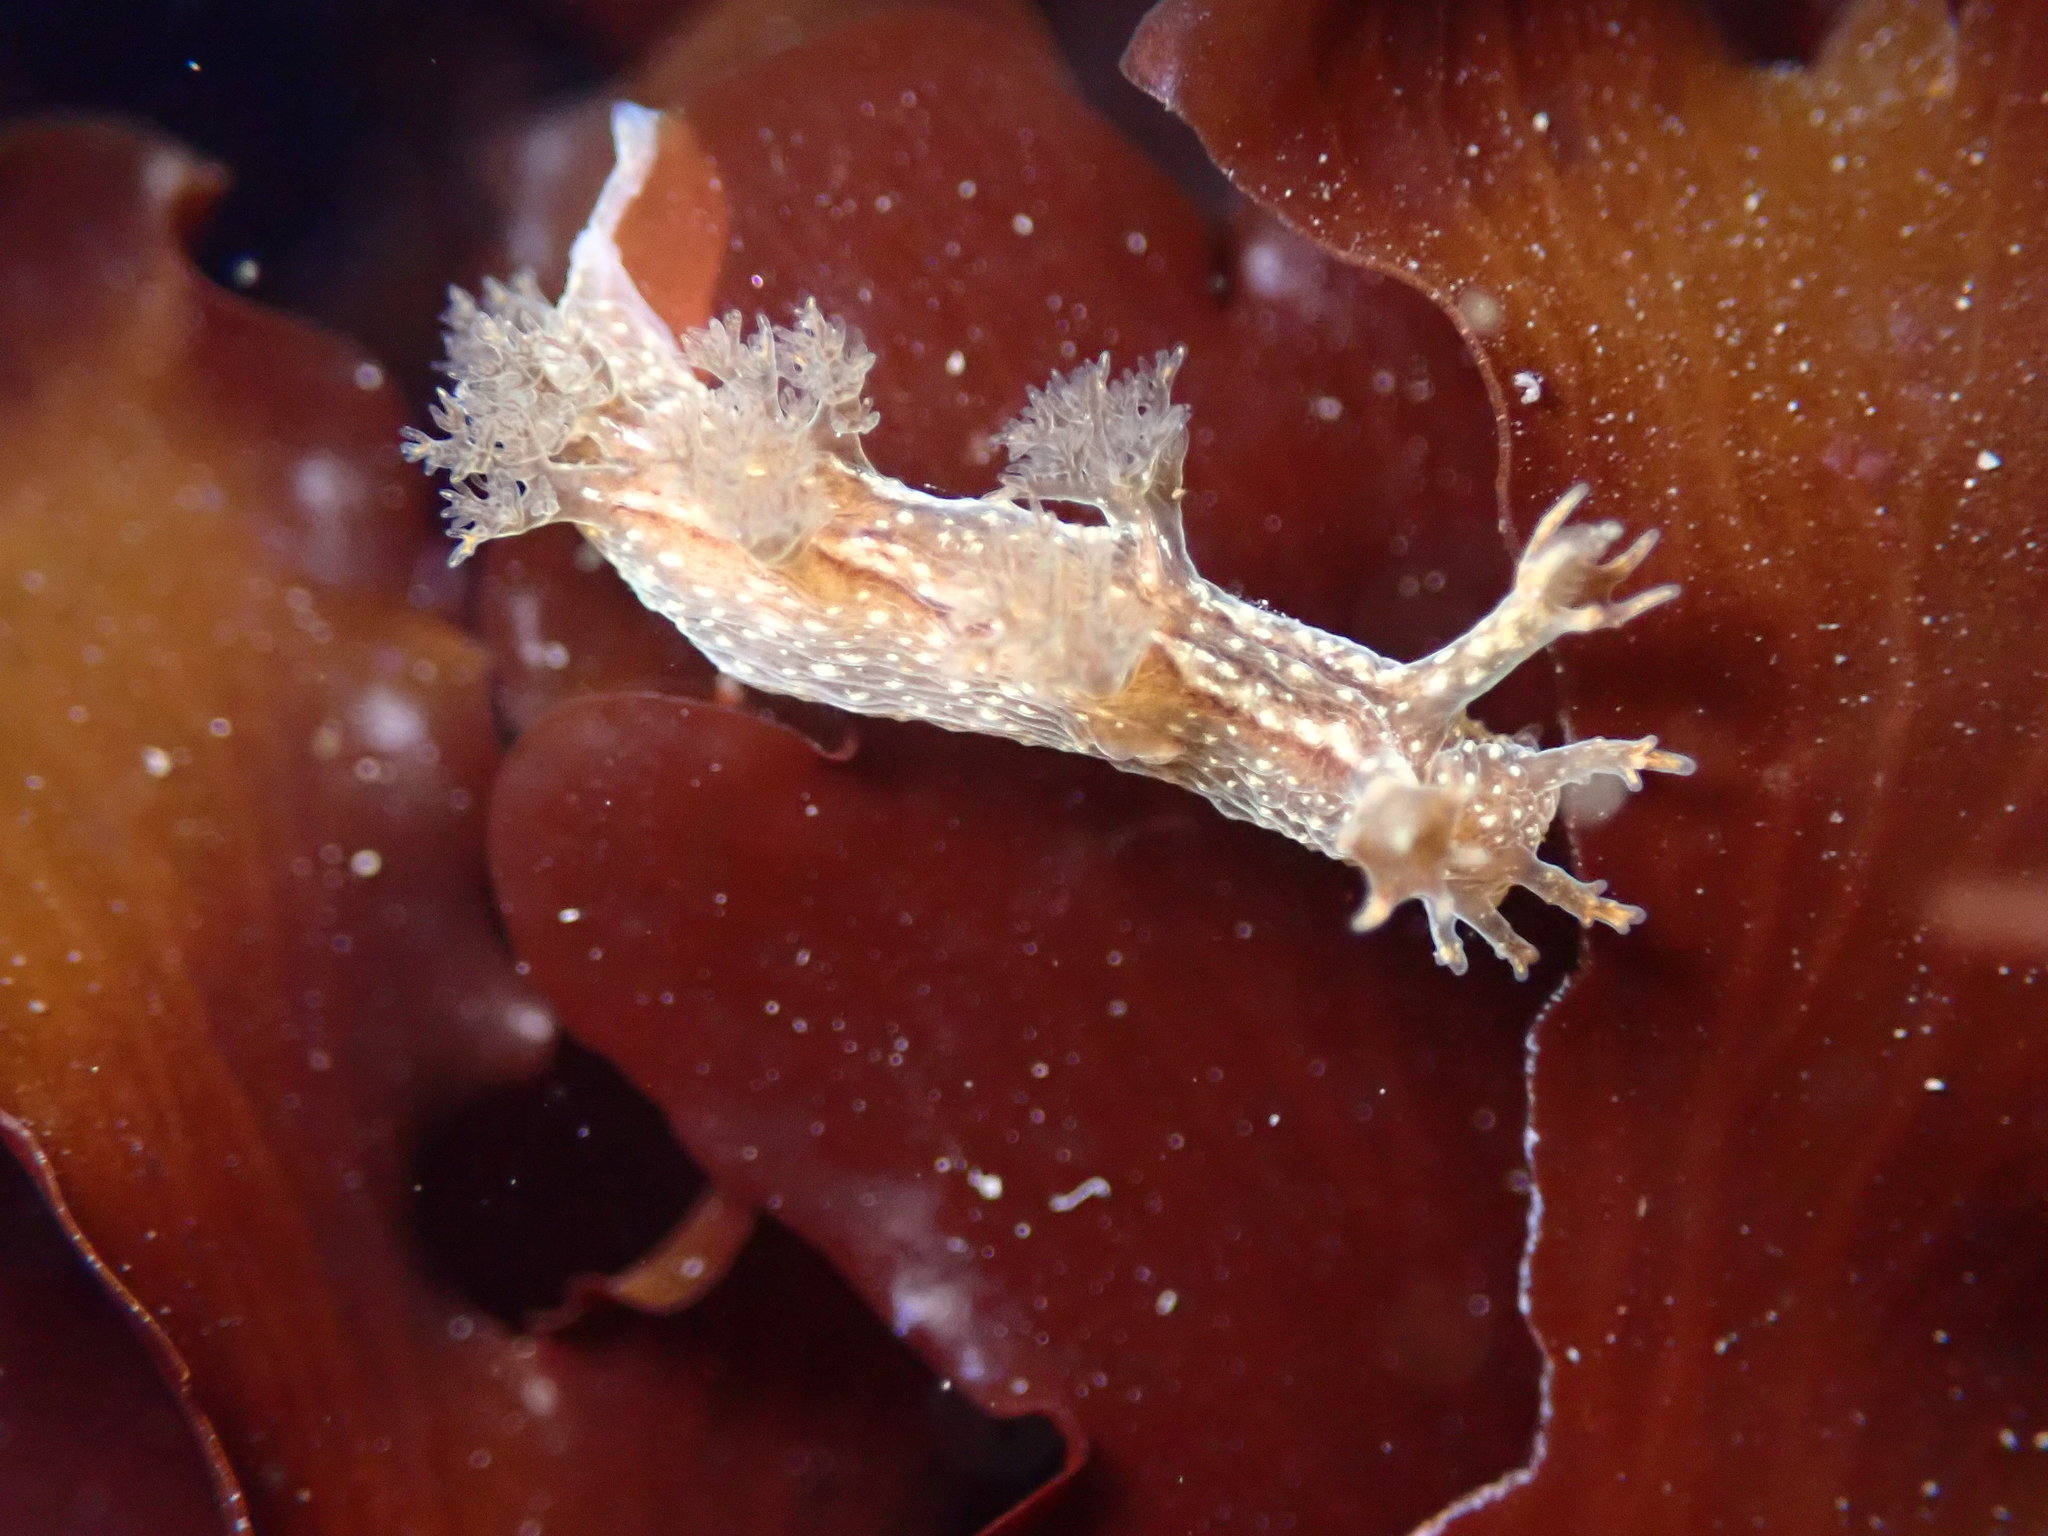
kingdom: Animalia
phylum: Mollusca
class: Gastropoda
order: Nudibranchia
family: Dendronotidae
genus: Dendronotus
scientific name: Dendronotus subramosus
